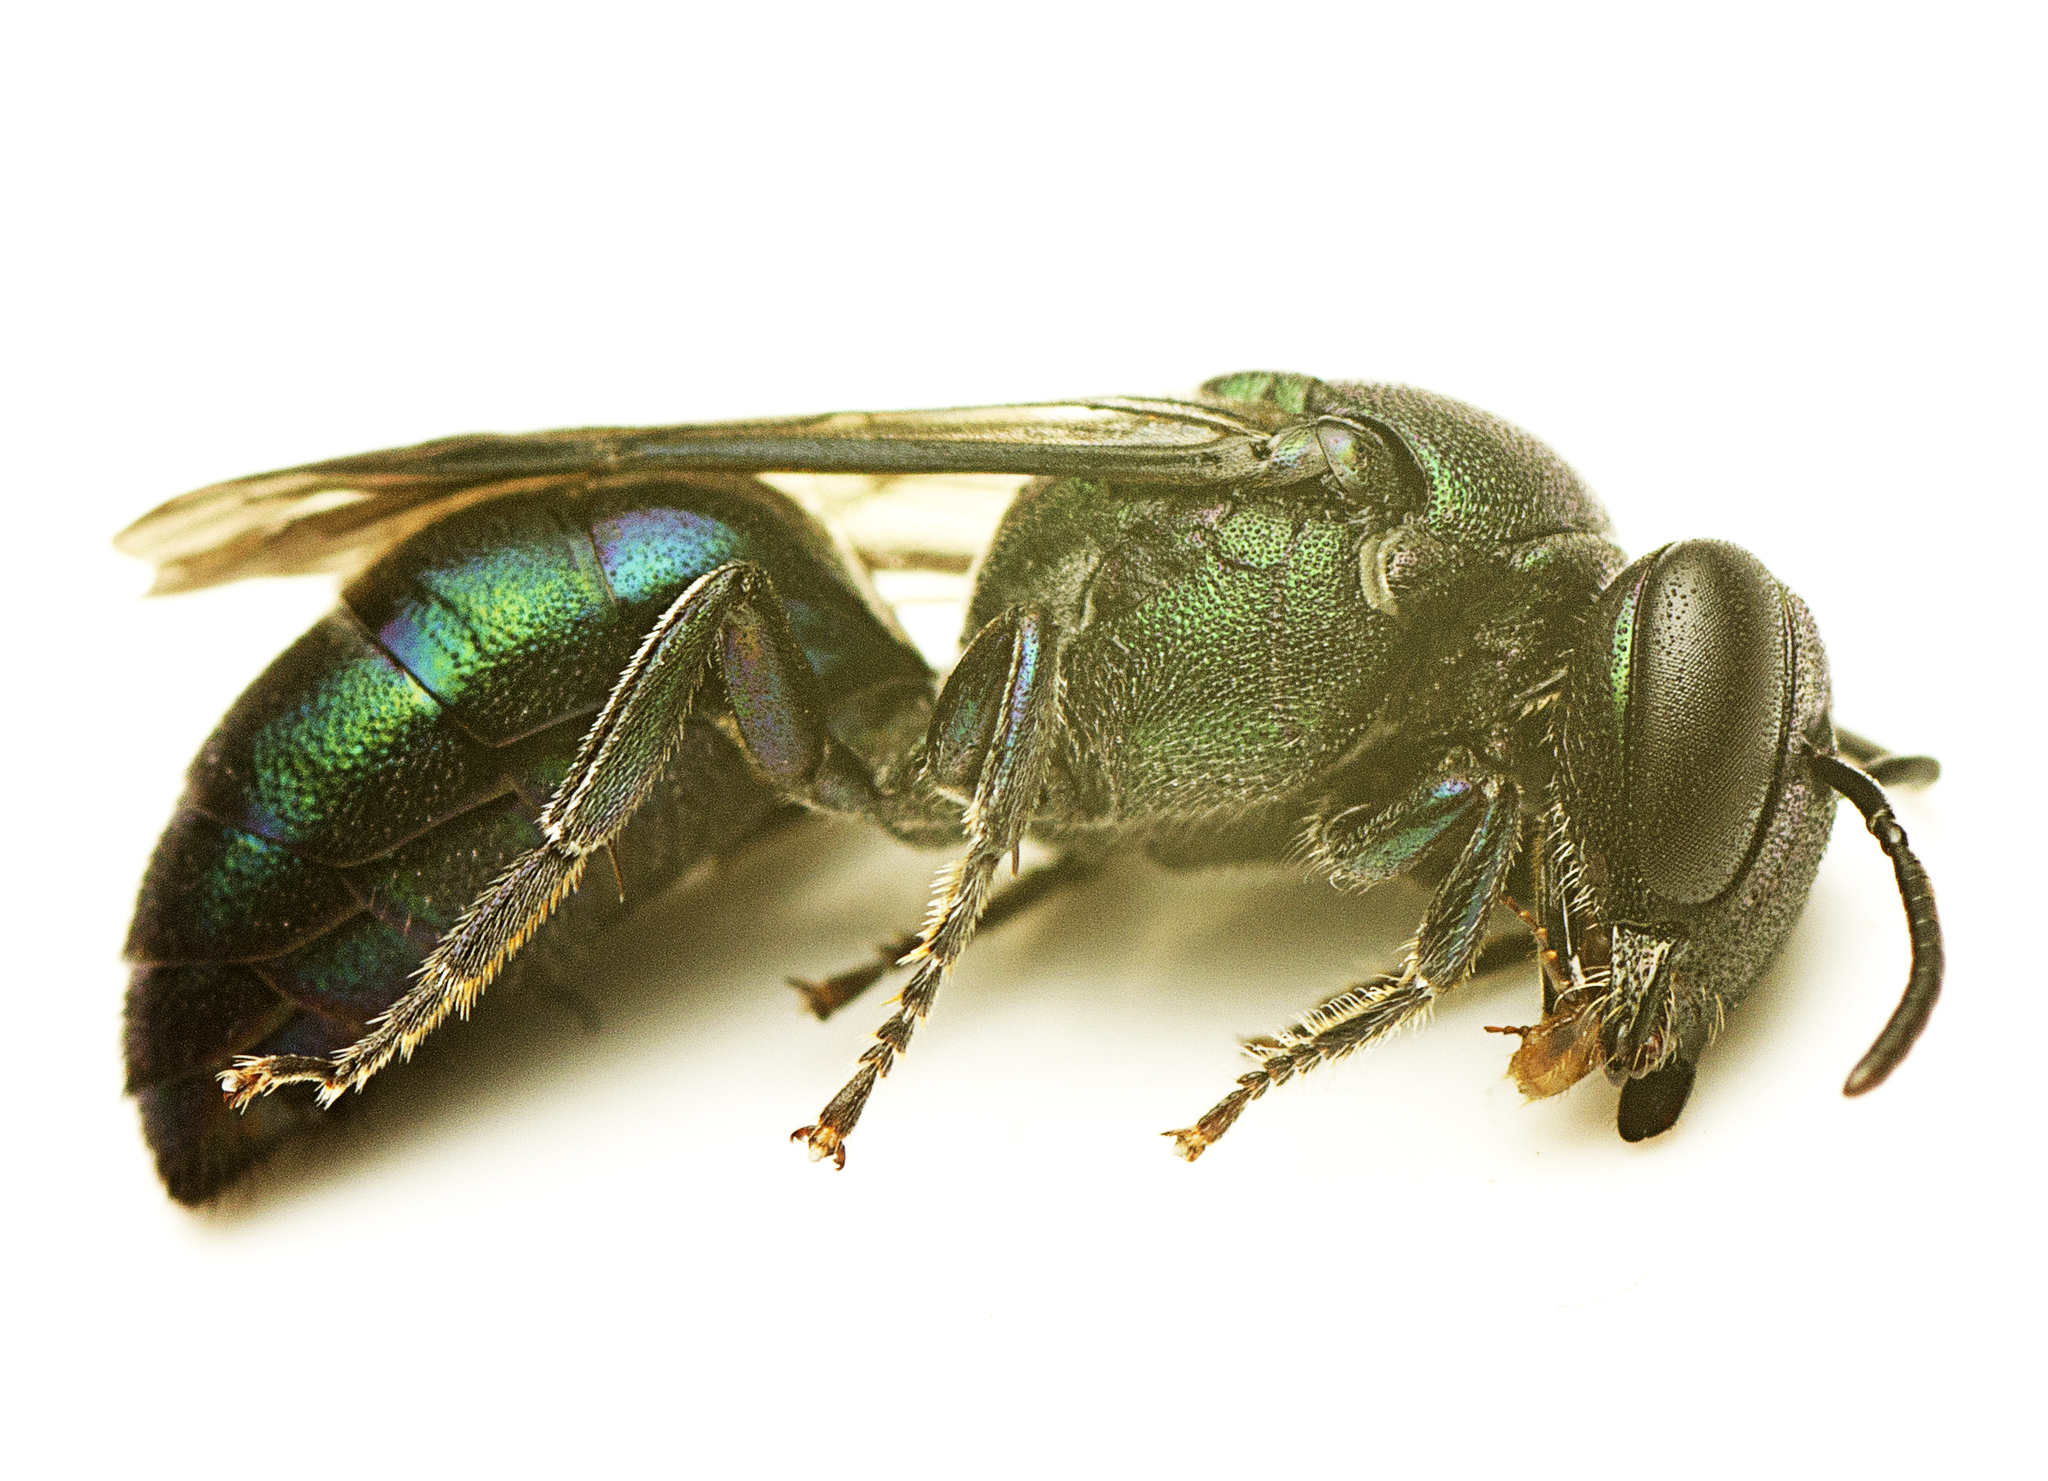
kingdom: Animalia
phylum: Arthropoda
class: Insecta
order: Hymenoptera
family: Colletidae
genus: Palaeorhiza
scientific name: Palaeorhiza turneriana
